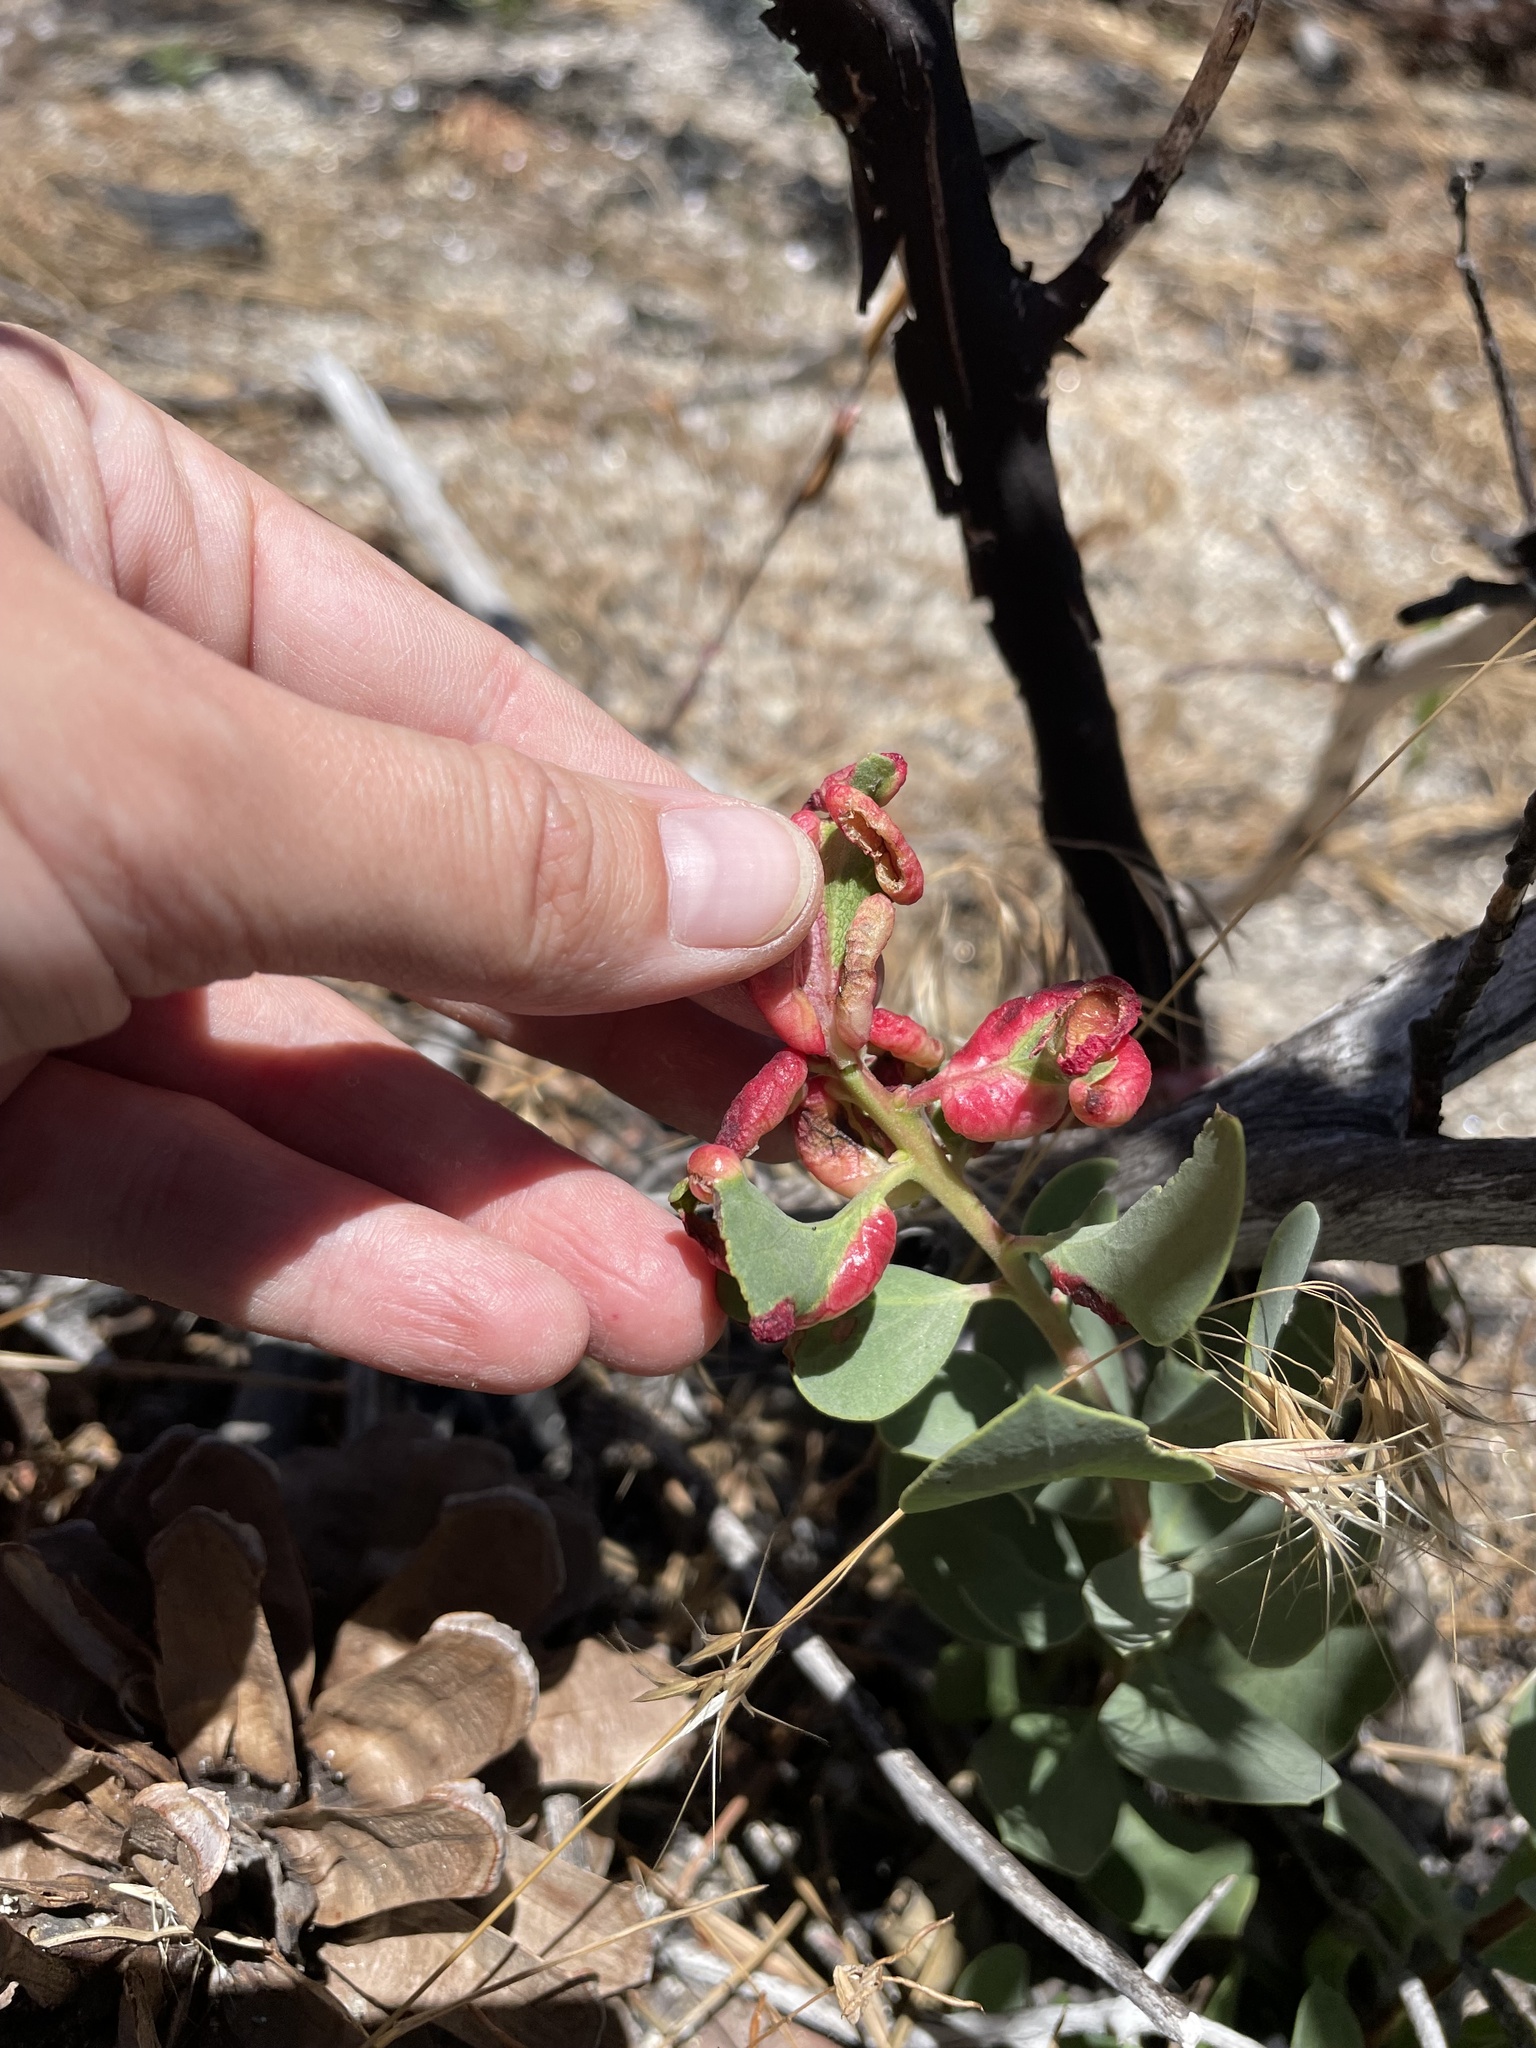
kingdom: Plantae
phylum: Tracheophyta
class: Magnoliopsida
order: Ericales
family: Ericaceae
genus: Arctostaphylos
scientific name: Arctostaphylos
